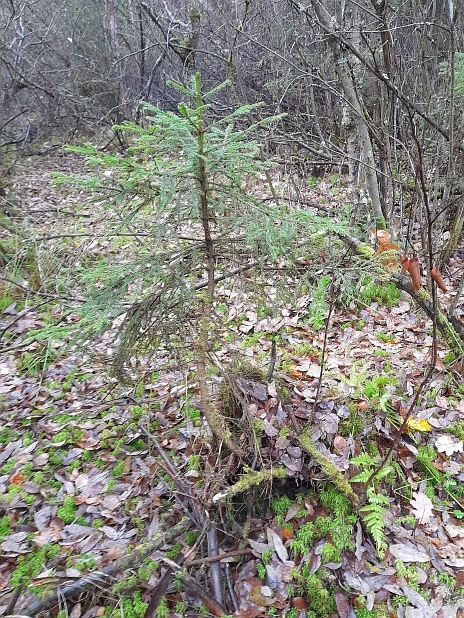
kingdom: Plantae
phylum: Tracheophyta
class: Pinopsida
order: Pinales
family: Pinaceae
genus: Picea
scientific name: Picea abies
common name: Norway spruce
